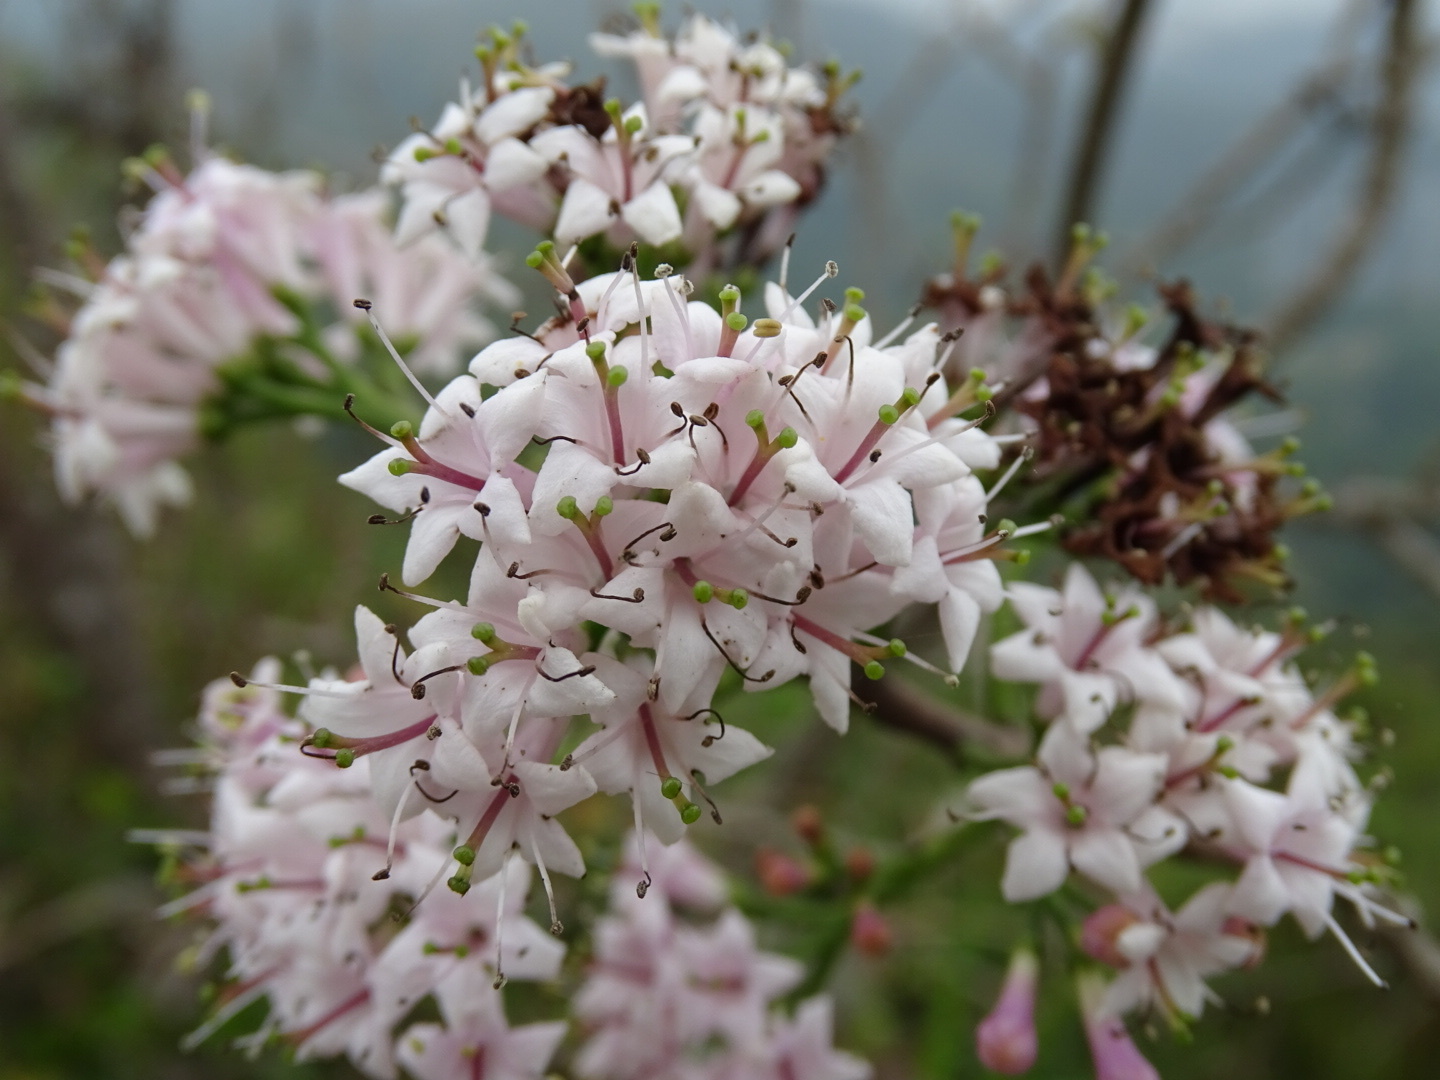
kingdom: Plantae
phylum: Tracheophyta
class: Magnoliopsida
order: Boraginales
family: Ehretiaceae
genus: Ehretia
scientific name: Ehretia longiflora
